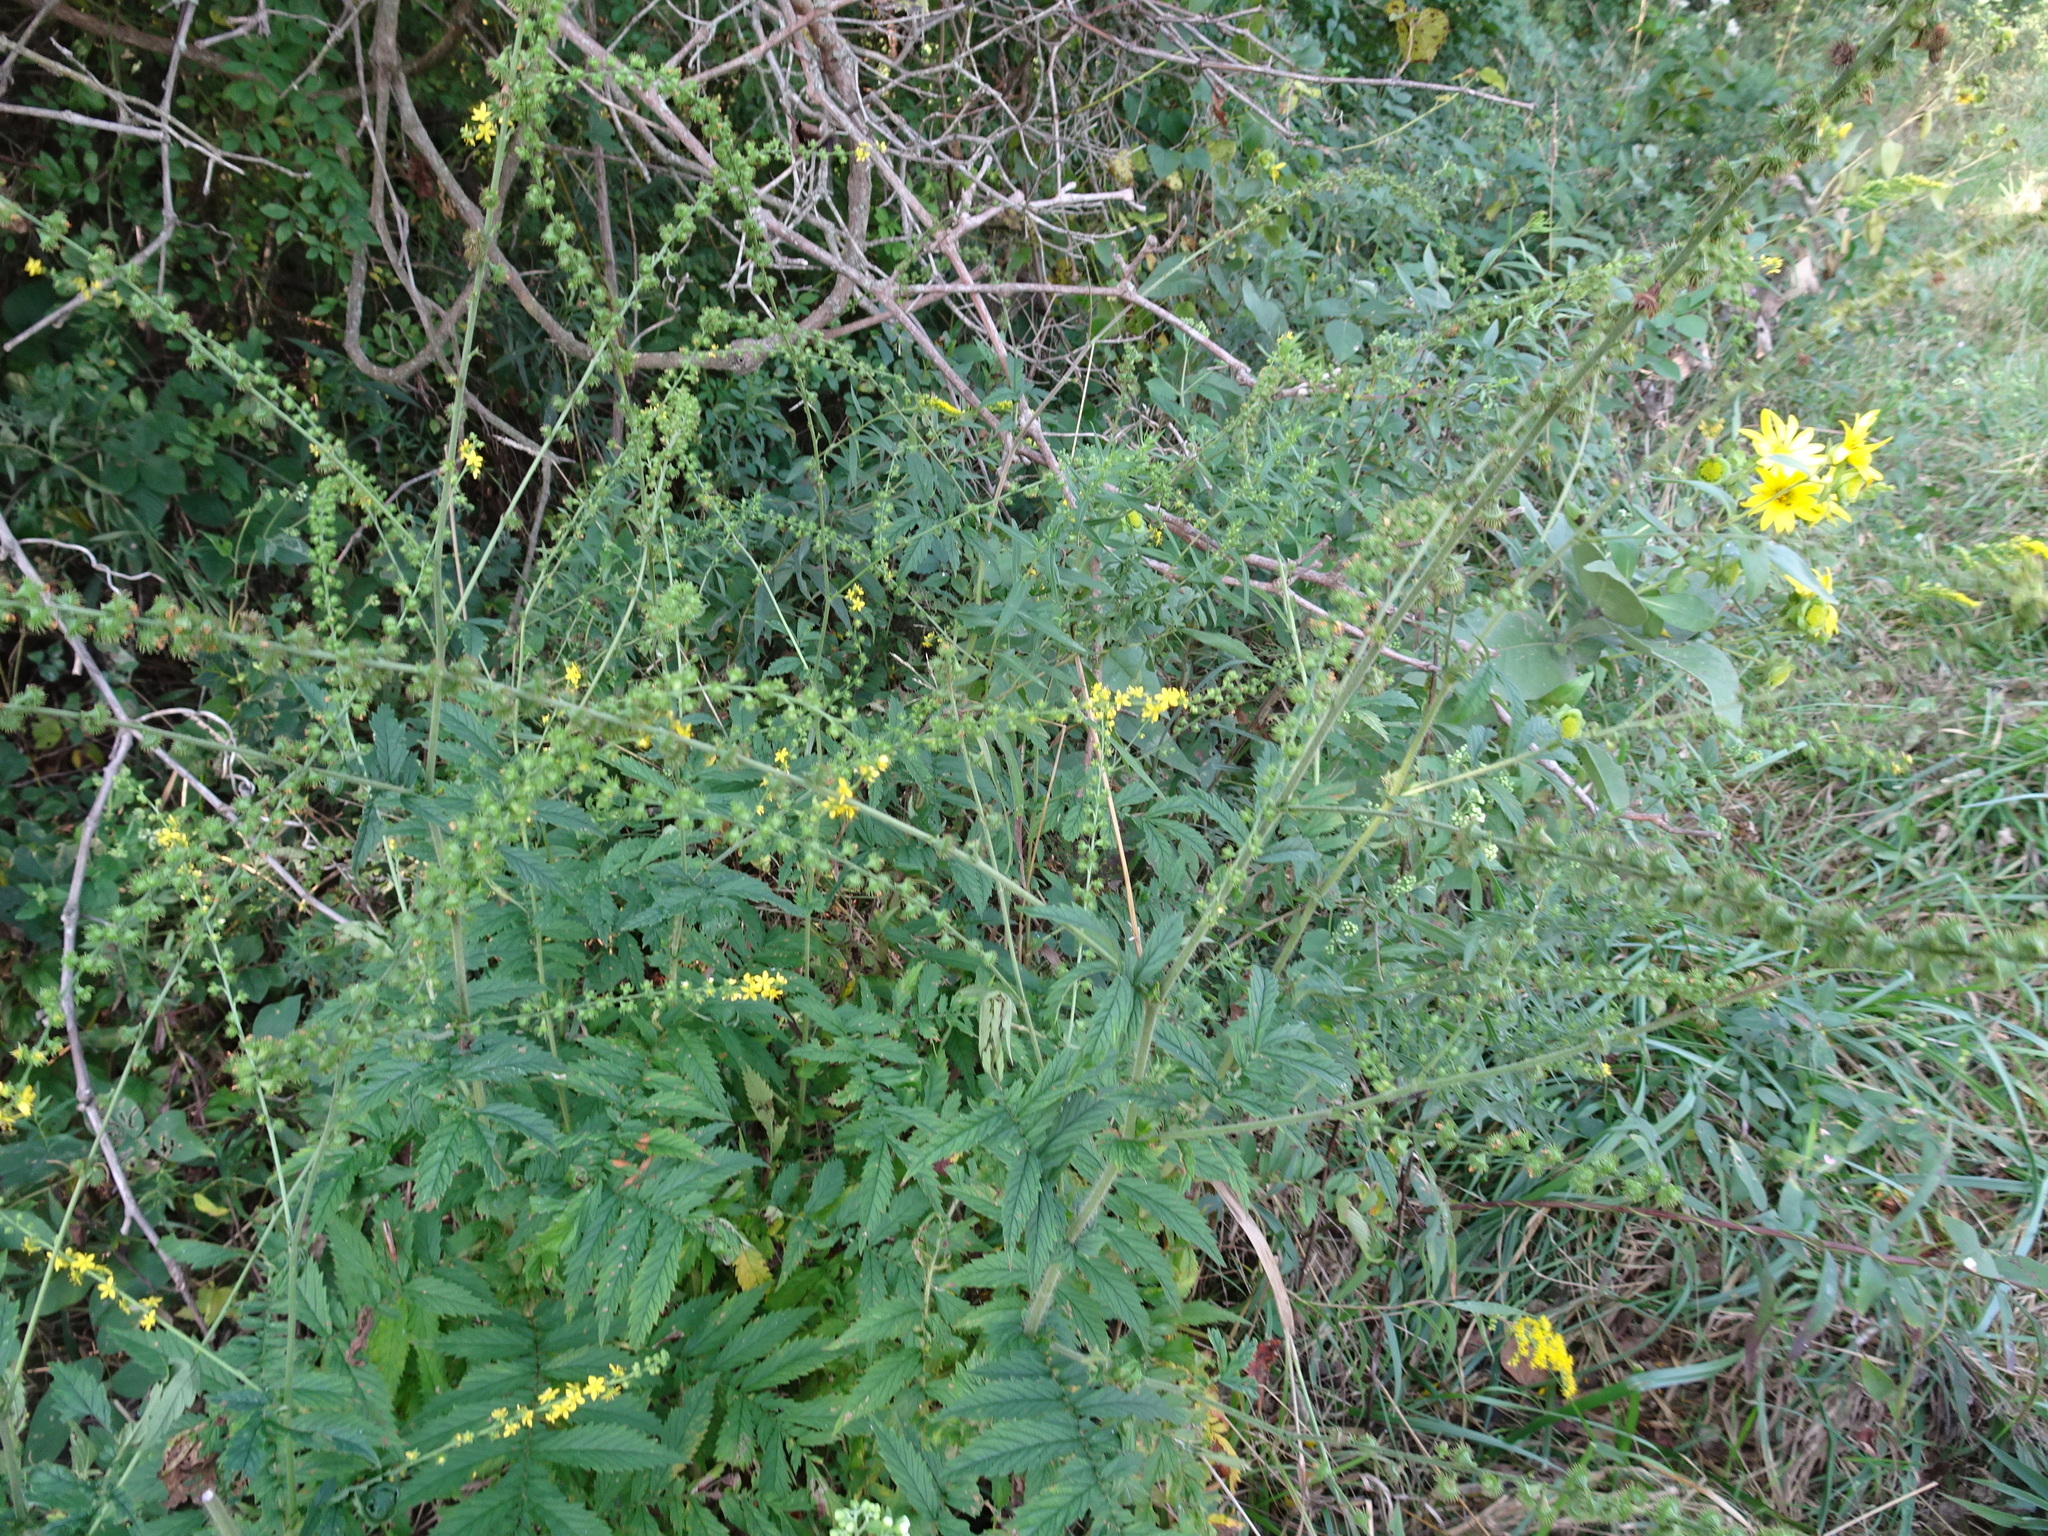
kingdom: Plantae
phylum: Tracheophyta
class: Magnoliopsida
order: Rosales
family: Rosaceae
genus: Agrimonia
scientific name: Agrimonia parviflora
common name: Harvest-lice
